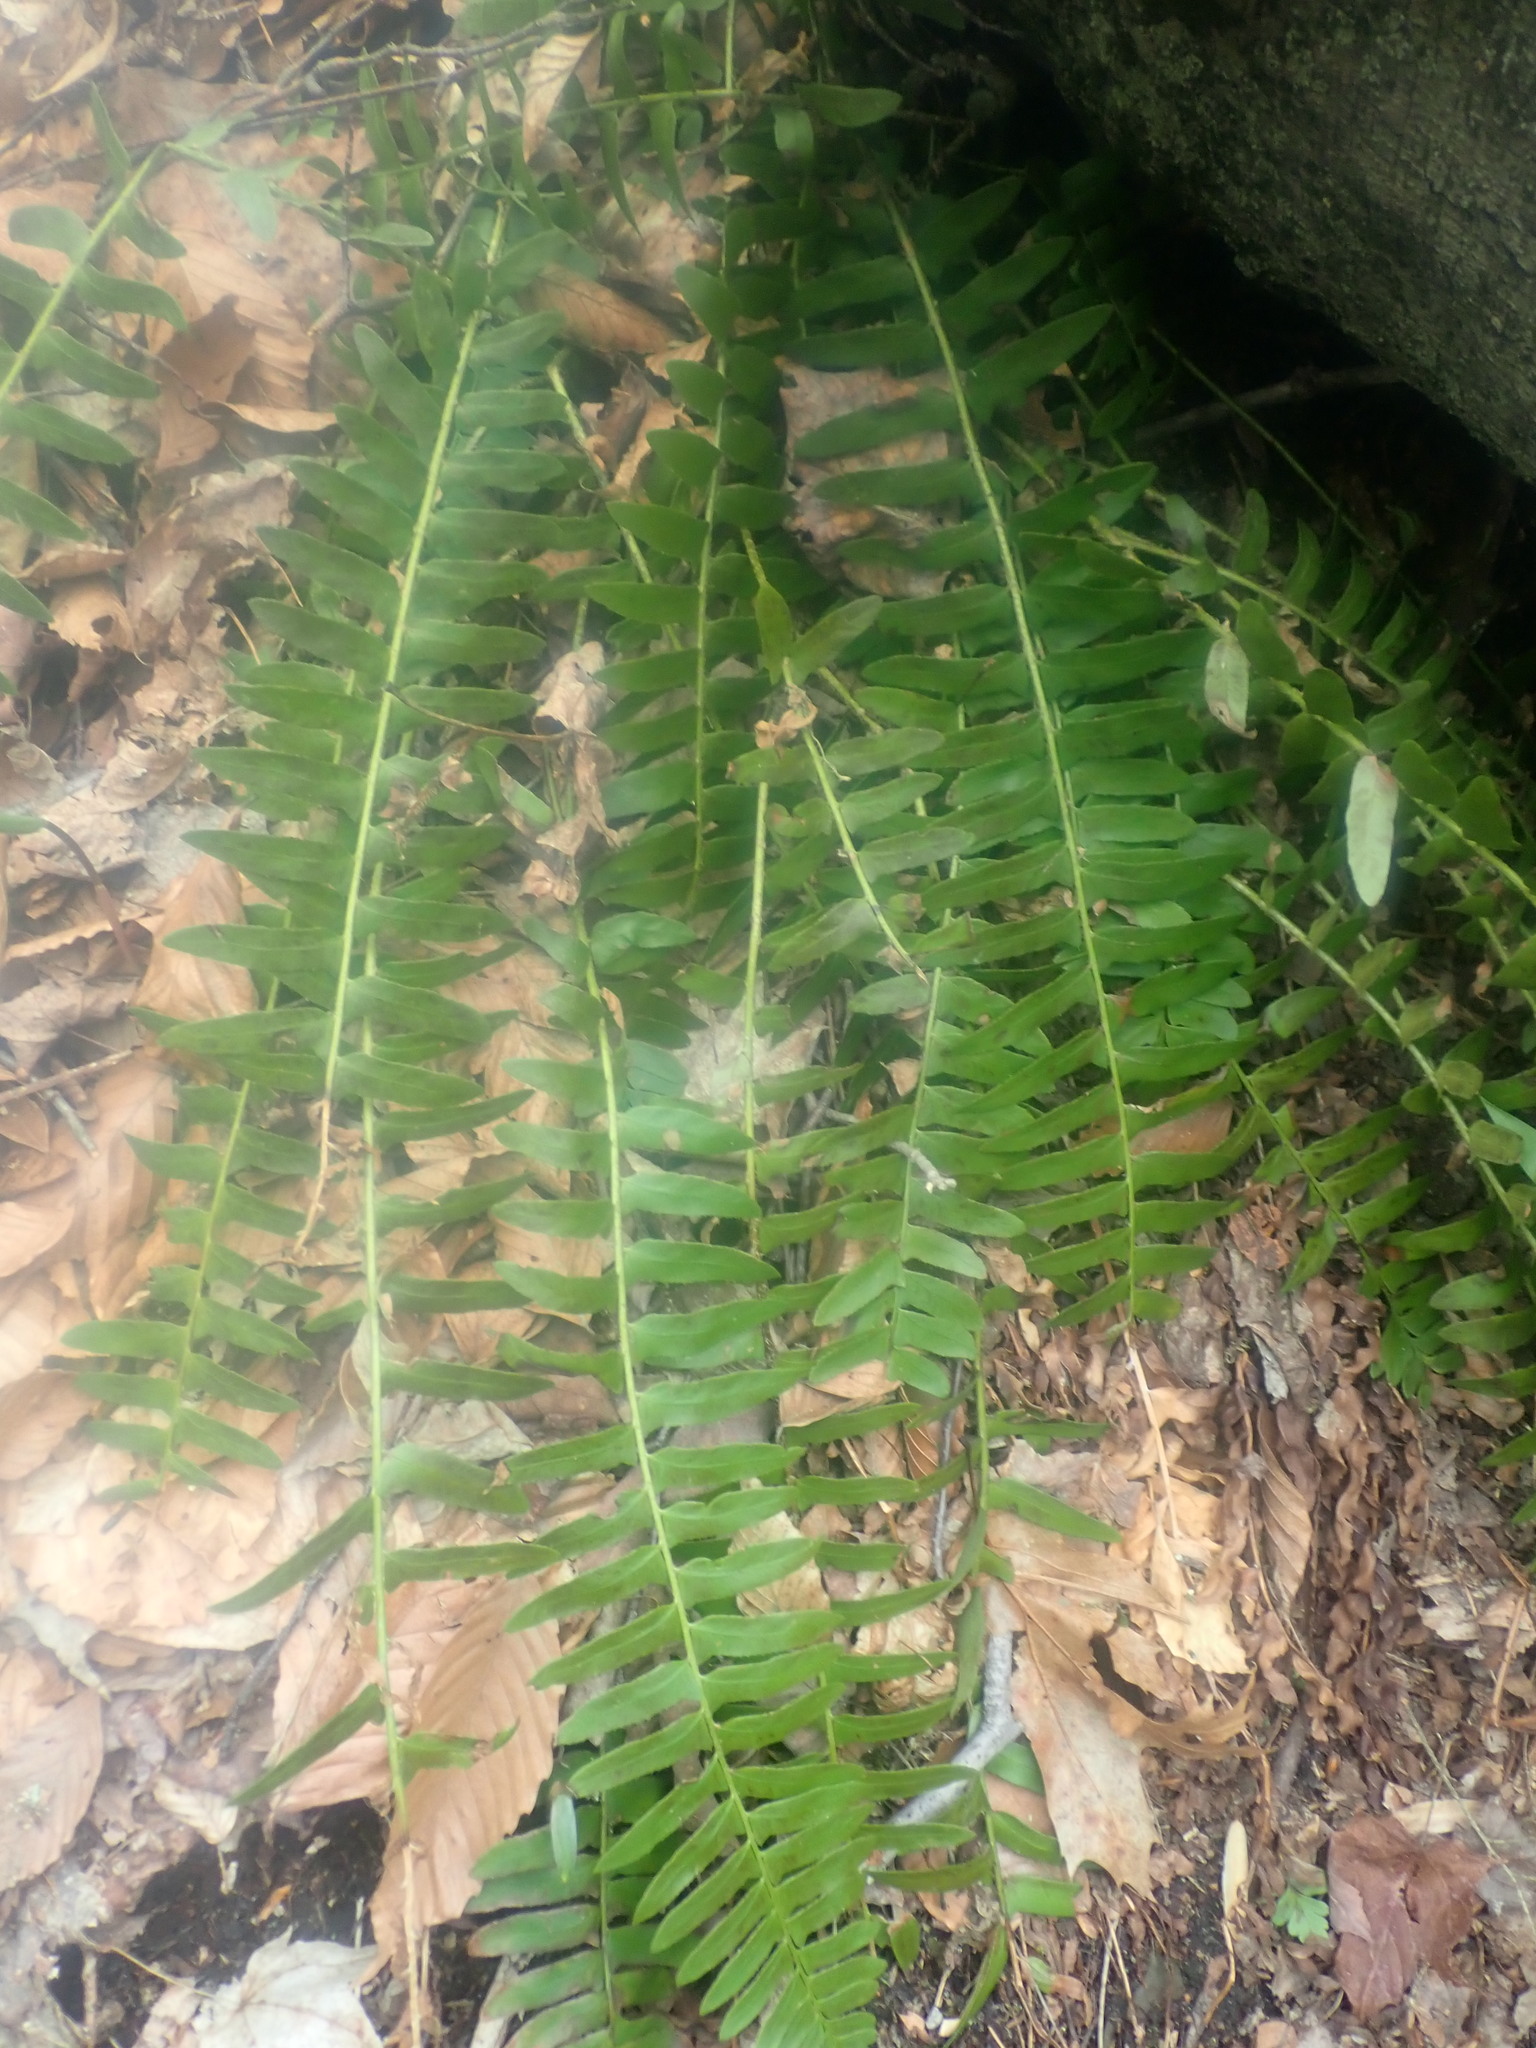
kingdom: Plantae
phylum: Tracheophyta
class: Polypodiopsida
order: Polypodiales
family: Dryopteridaceae
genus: Polystichum
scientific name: Polystichum acrostichoides
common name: Christmas fern
